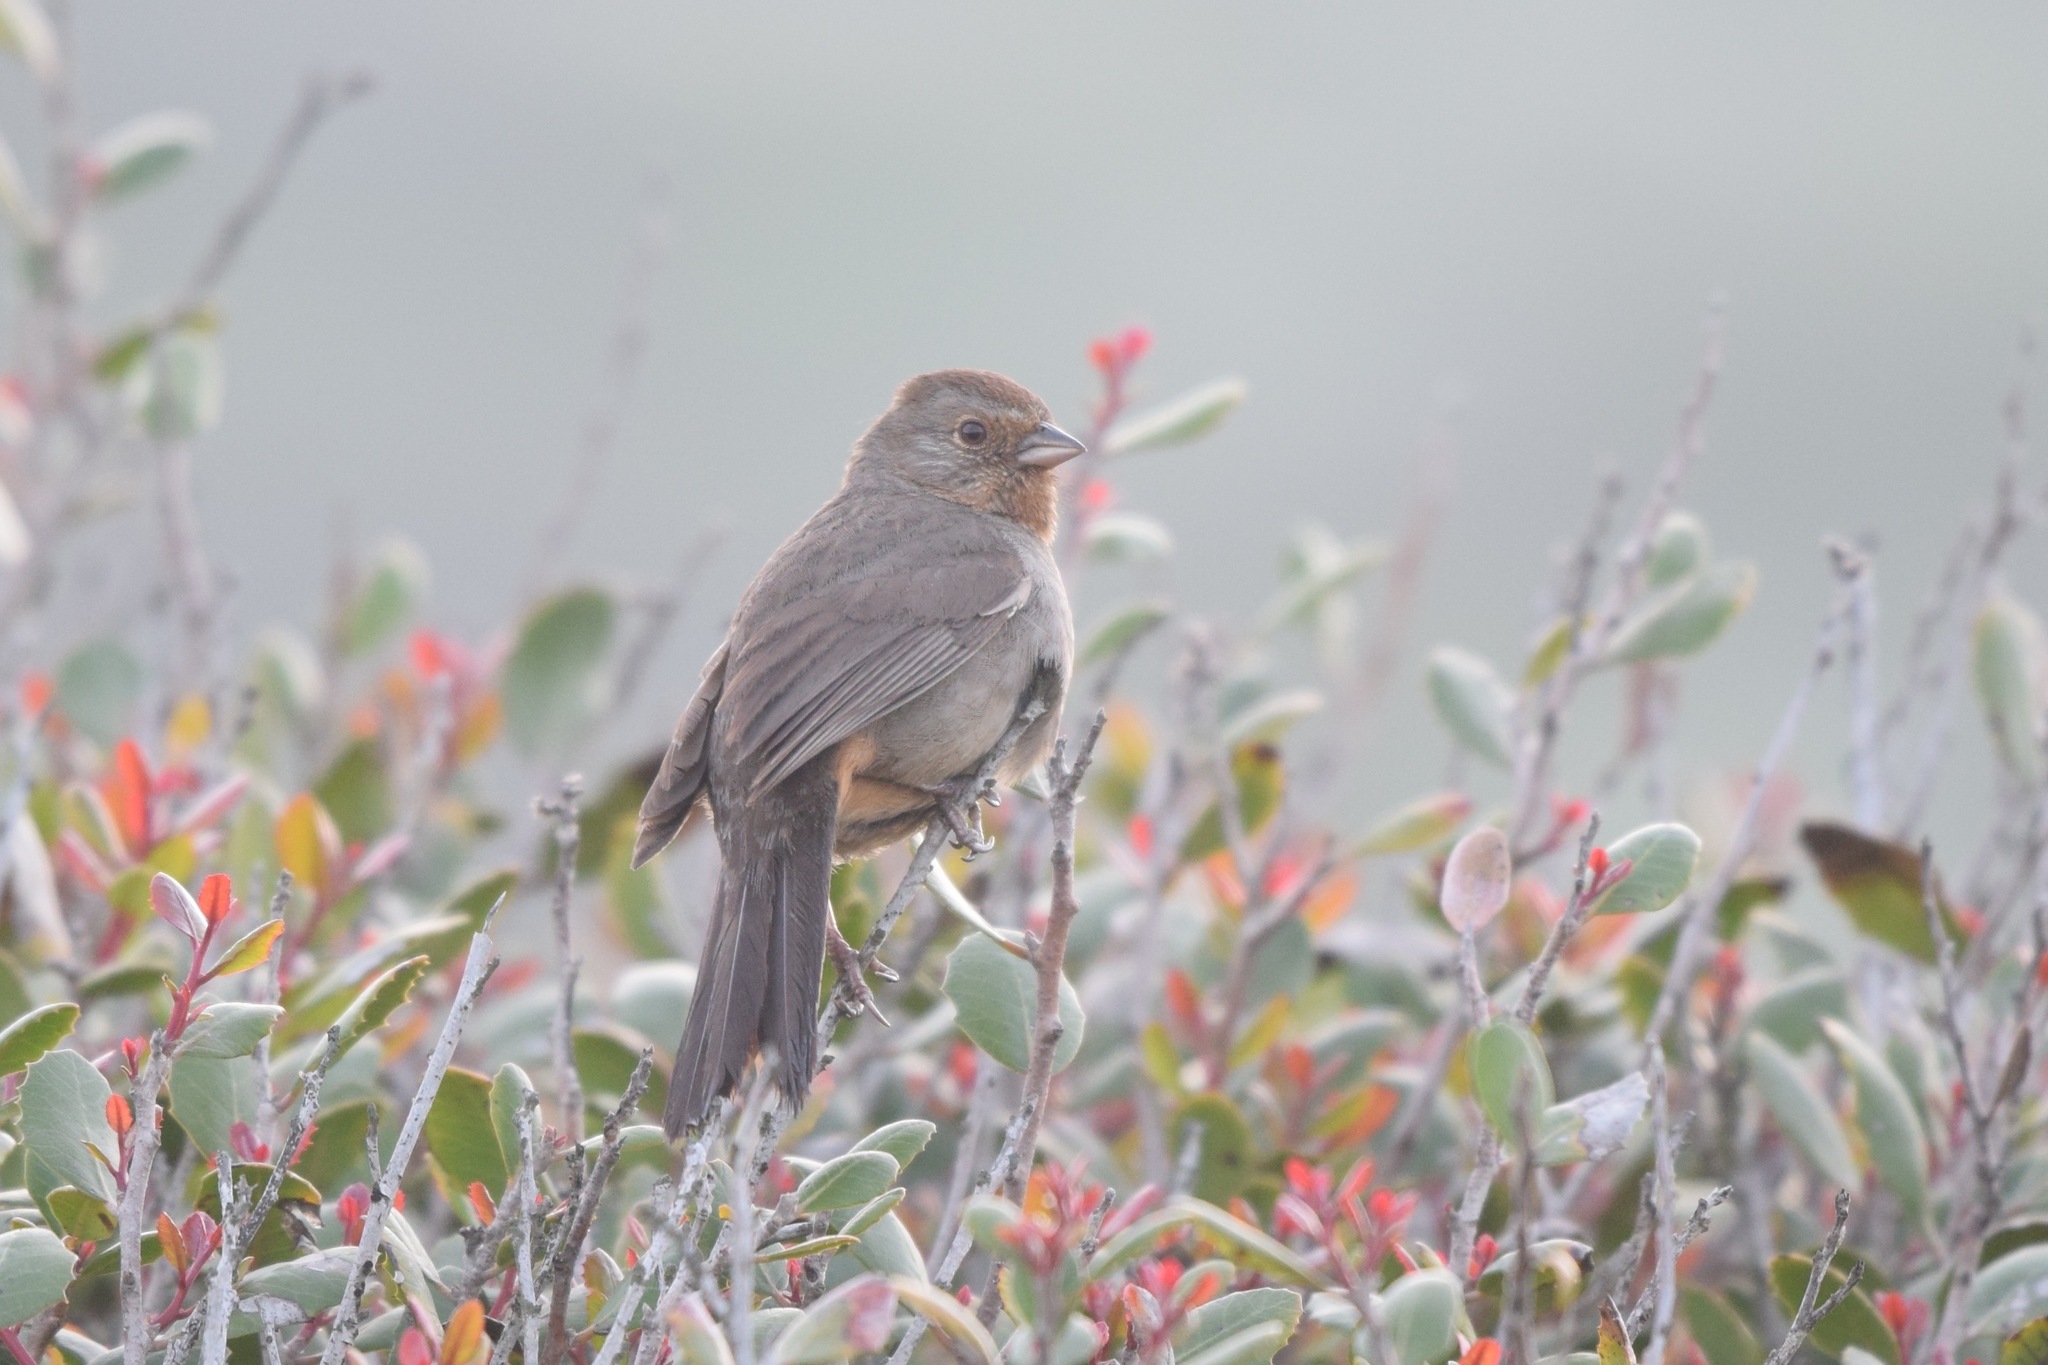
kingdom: Animalia
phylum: Chordata
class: Aves
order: Passeriformes
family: Passerellidae
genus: Melozone
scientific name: Melozone crissalis
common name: California towhee
